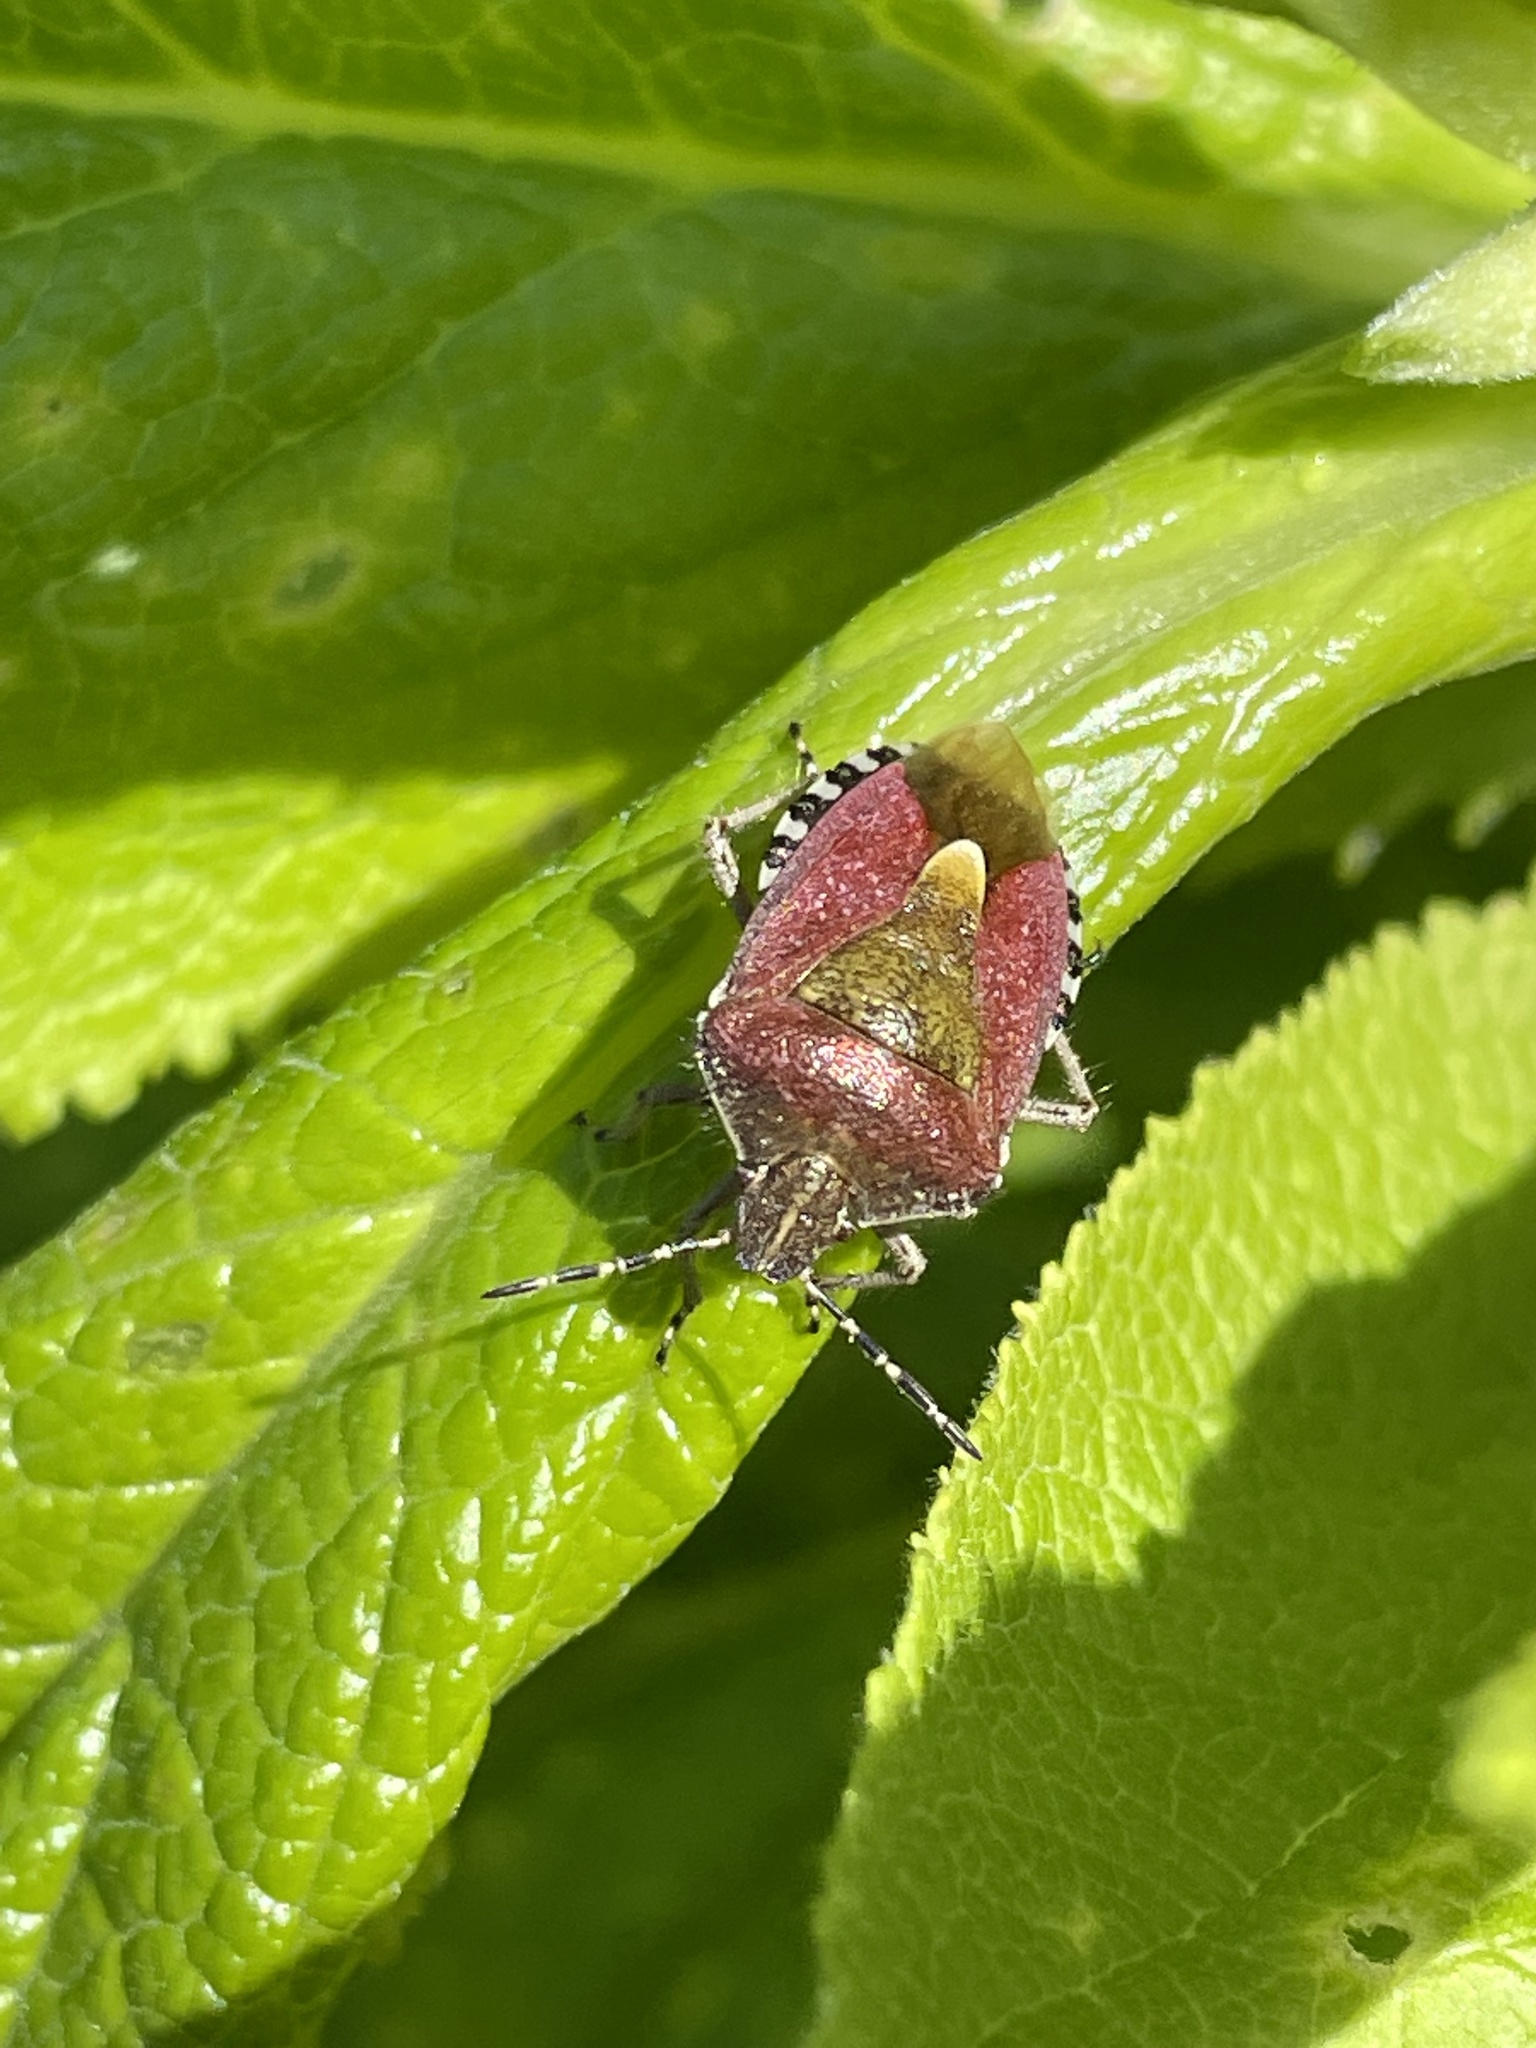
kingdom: Animalia
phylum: Arthropoda
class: Insecta
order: Hemiptera
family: Pentatomidae
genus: Dolycoris
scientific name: Dolycoris baccarum
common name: Sloe bug
